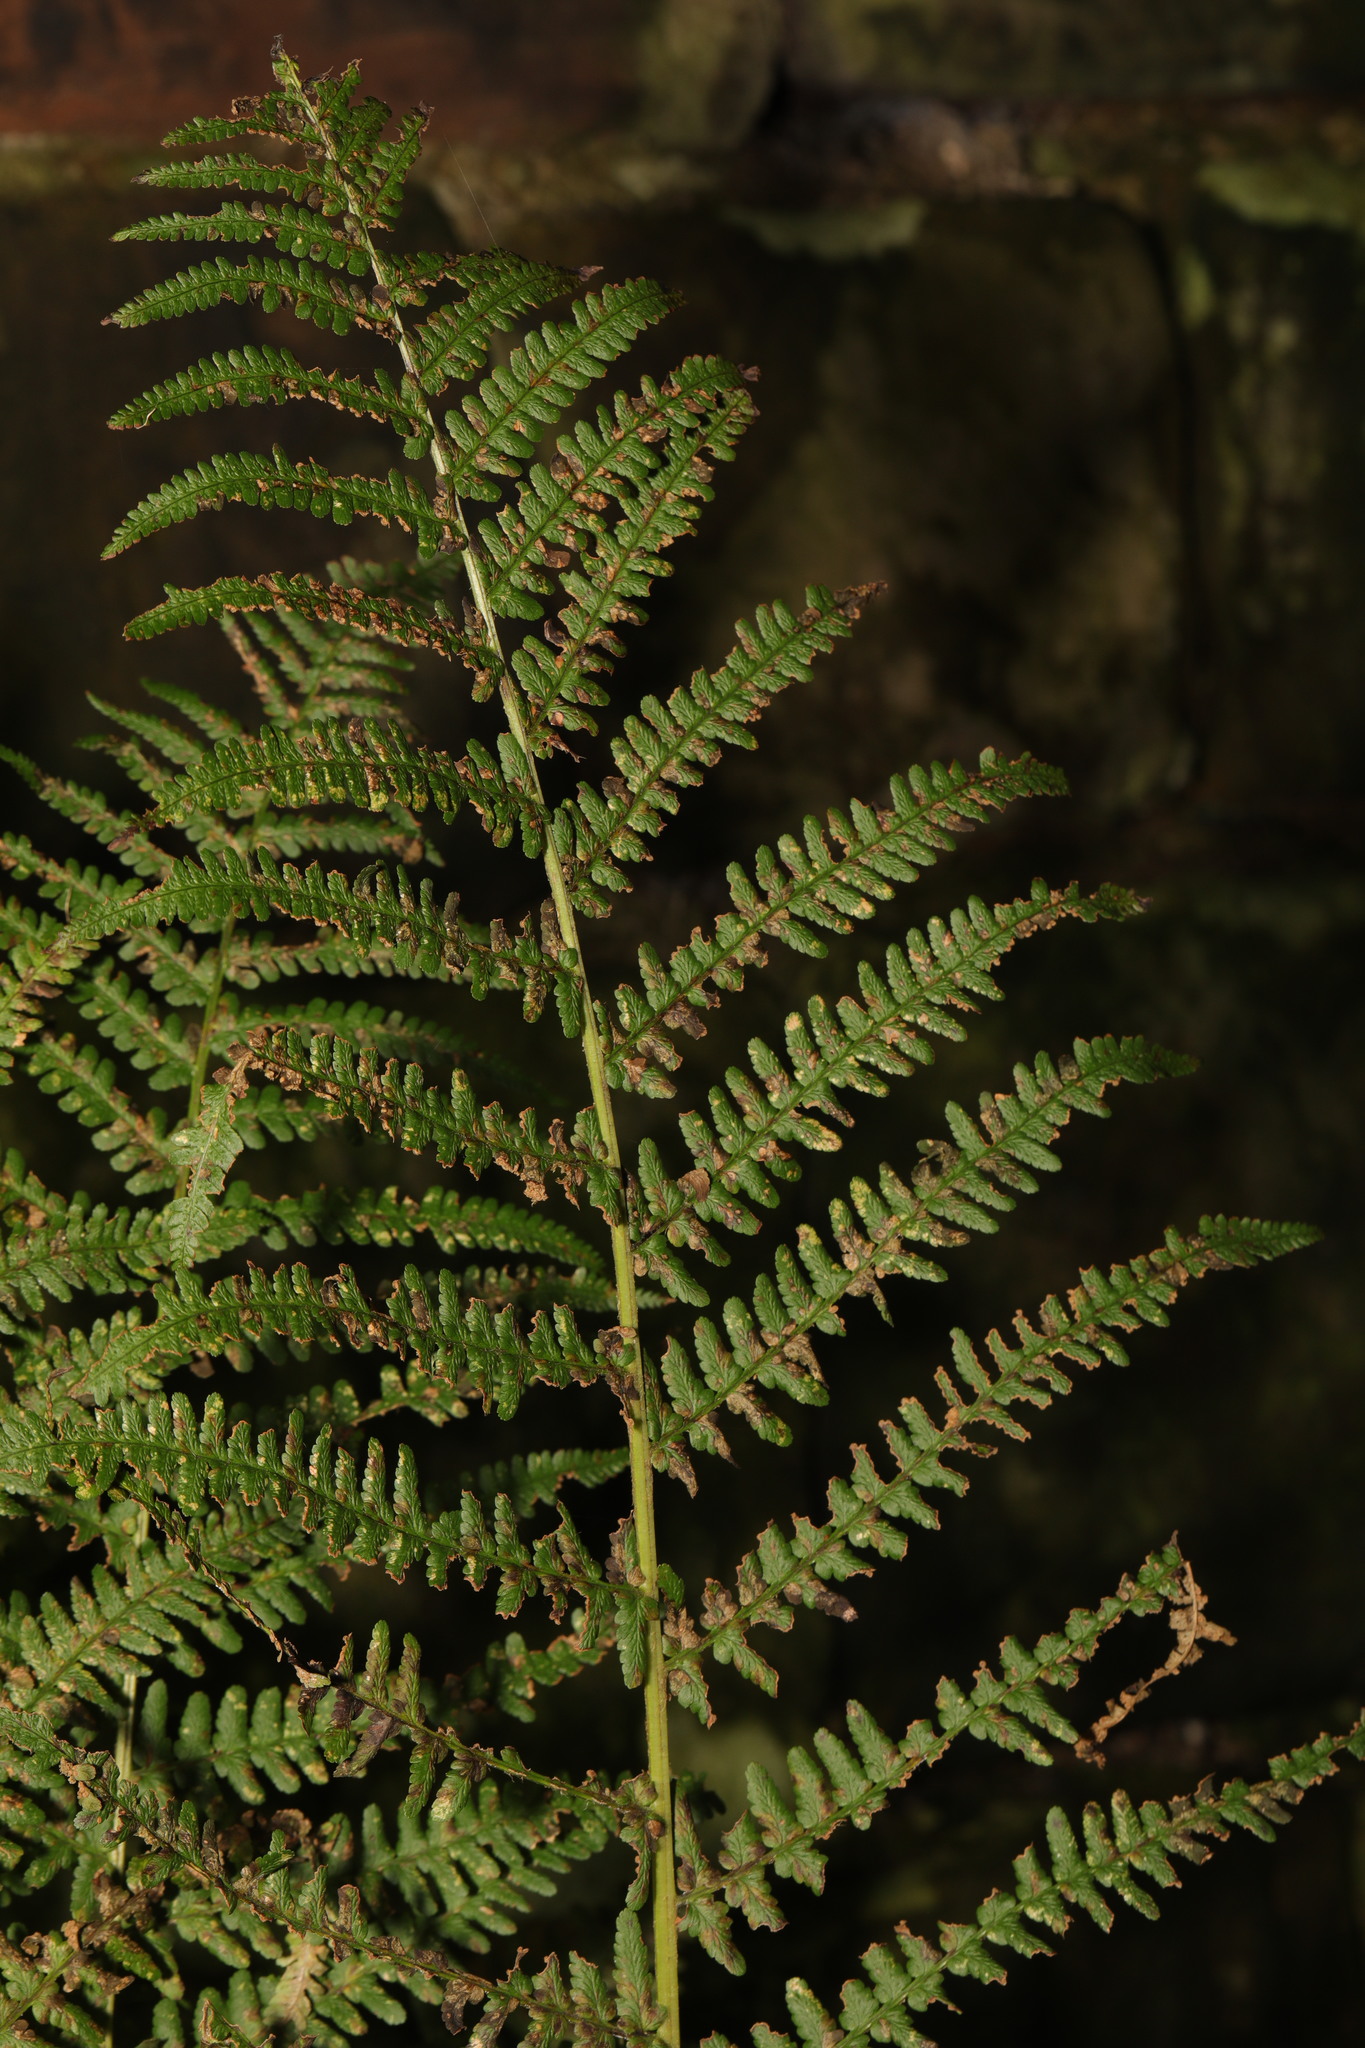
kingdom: Plantae
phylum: Tracheophyta
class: Polypodiopsida
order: Polypodiales
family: Dryopteridaceae
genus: Dryopteris
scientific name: Dryopteris filix-mas
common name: Male fern
